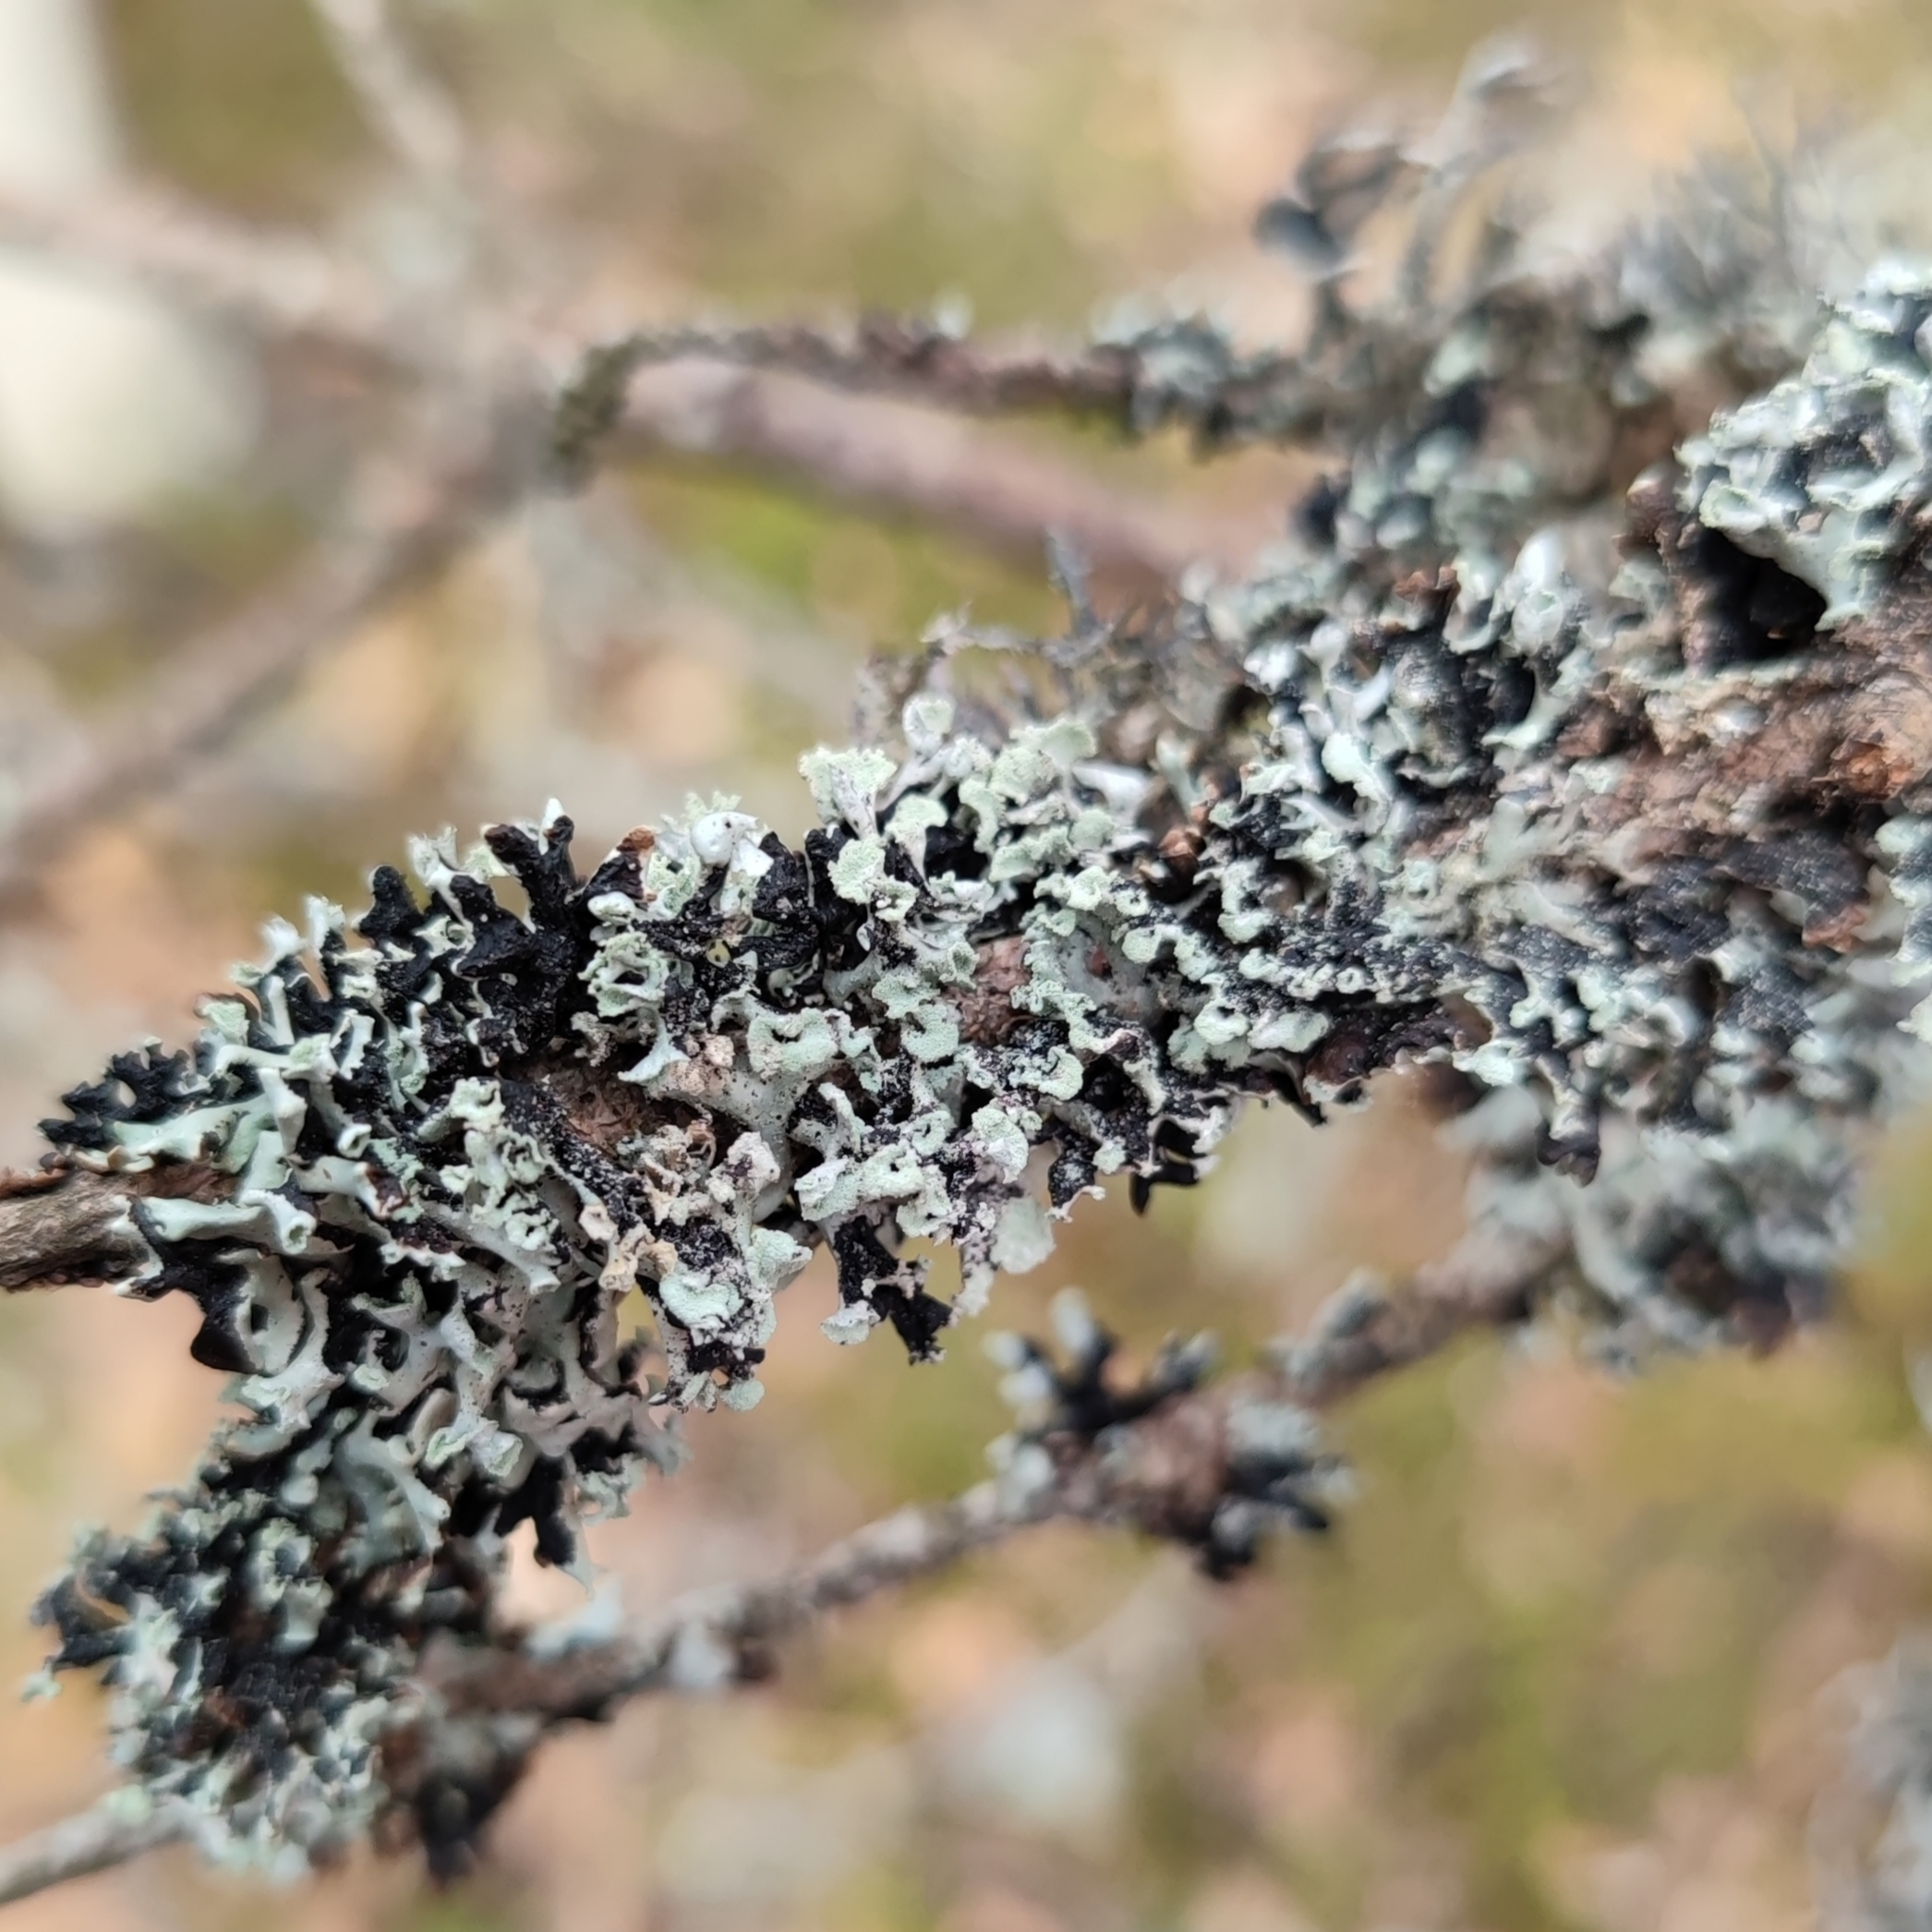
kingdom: Fungi
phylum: Ascomycota
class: Lecanoromycetes
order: Lecanorales
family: Parmeliaceae
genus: Hypogymnia
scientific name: Hypogymnia physodes
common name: Dark crottle
